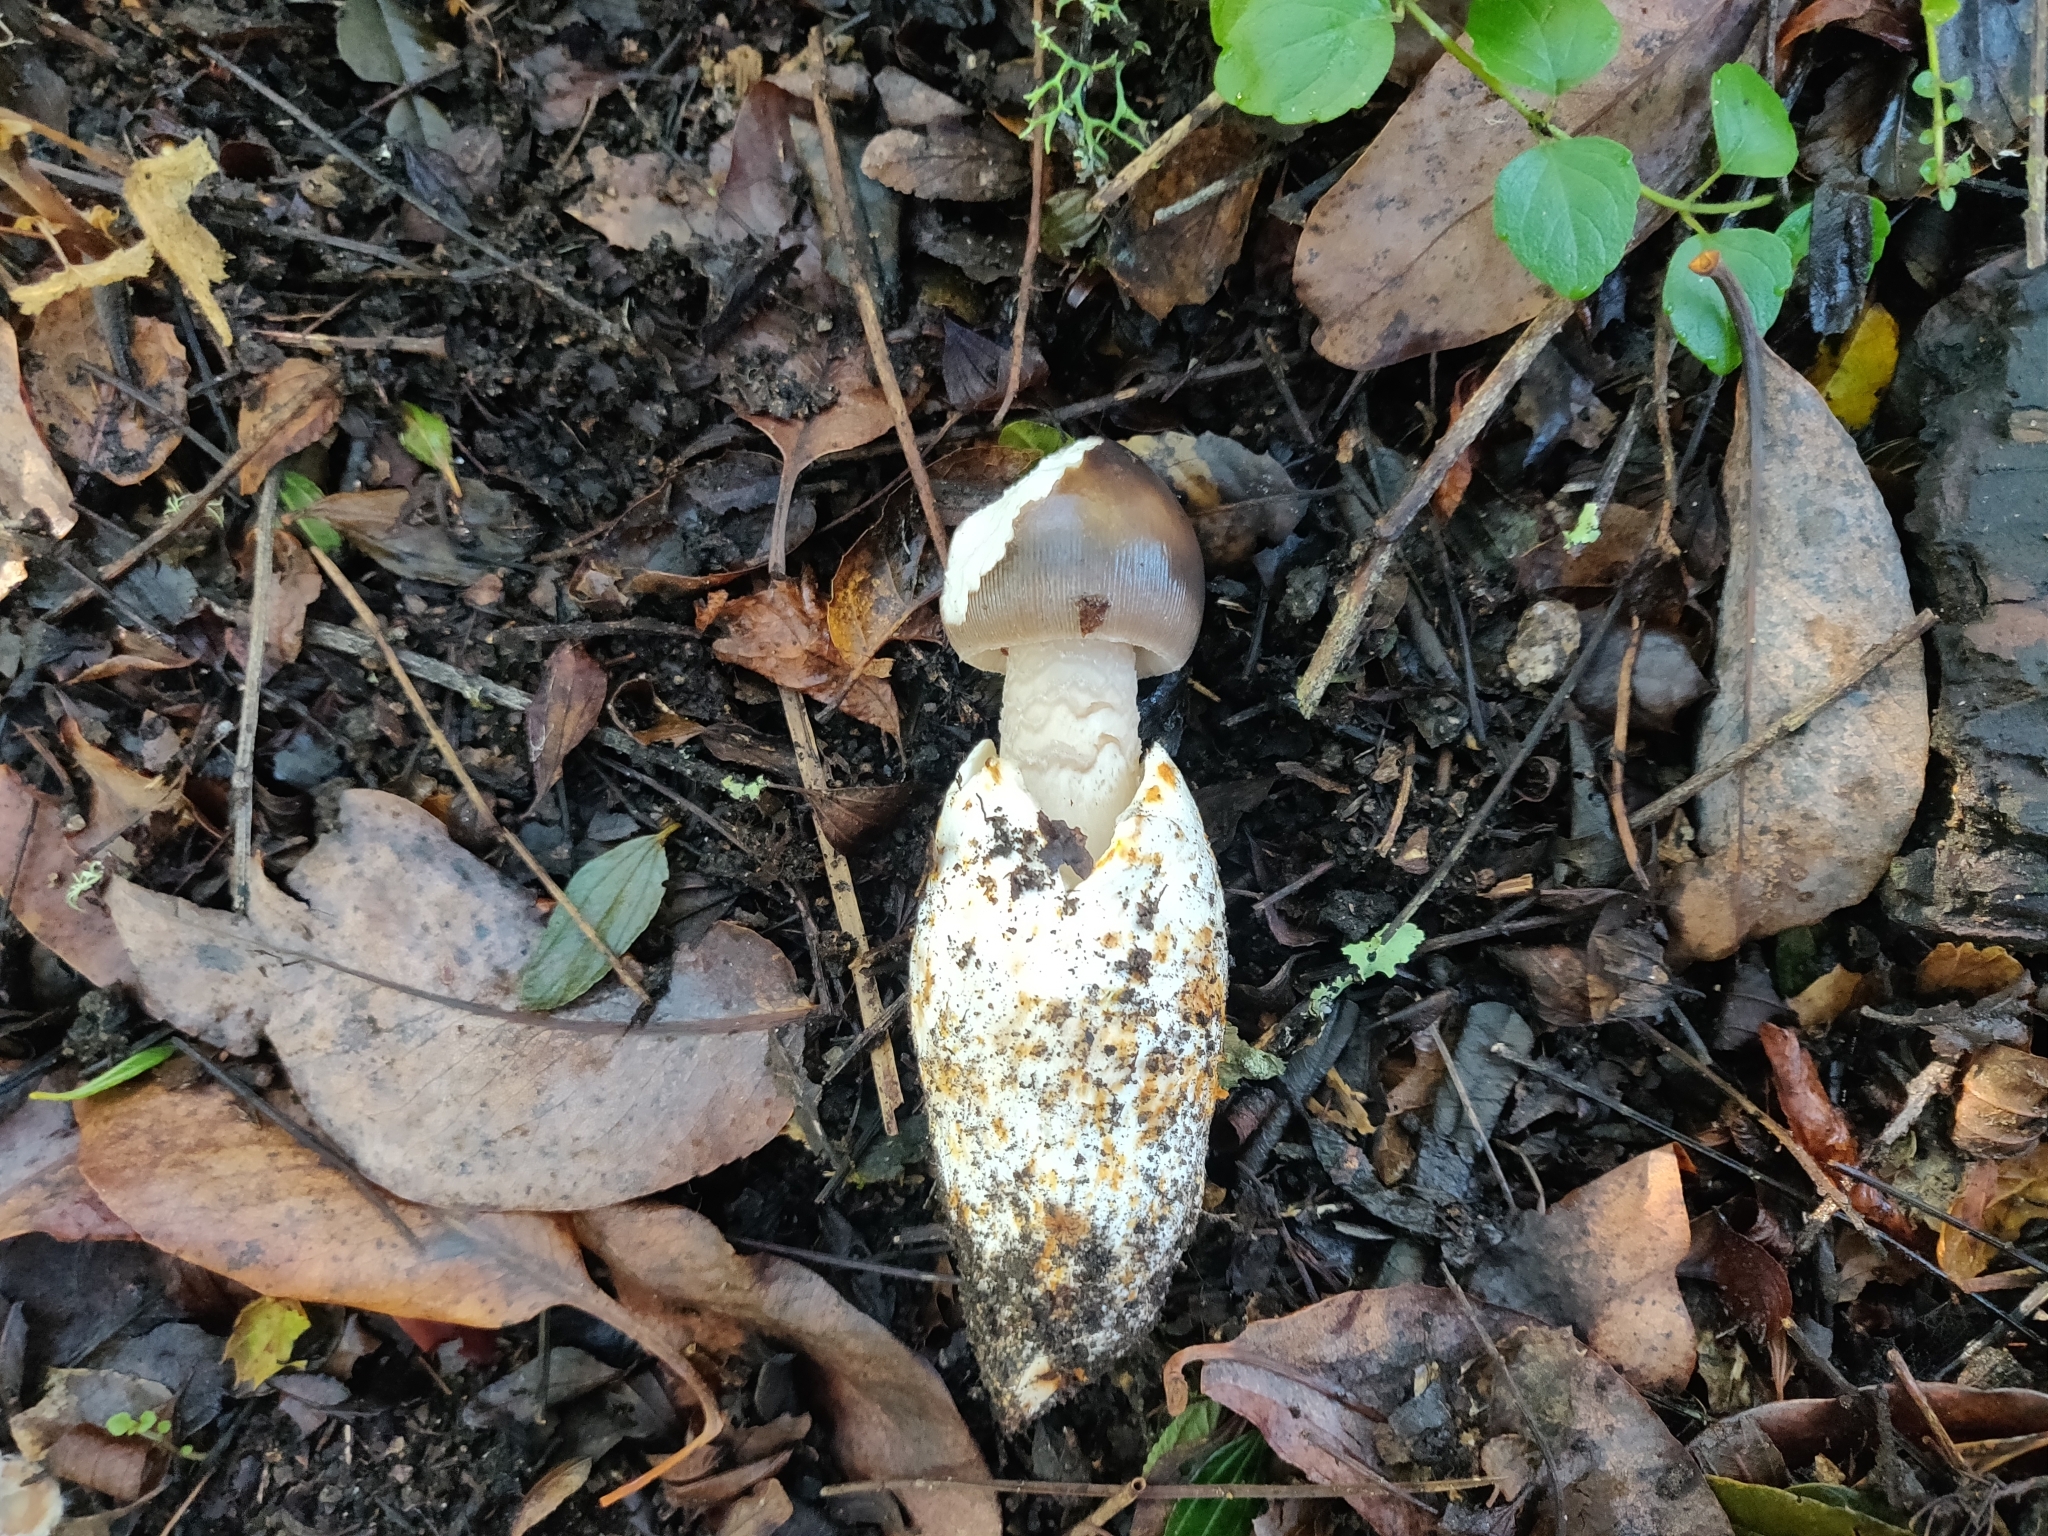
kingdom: Fungi
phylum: Basidiomycota
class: Agaricomycetes
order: Agaricales
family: Amanitaceae
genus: Amanita
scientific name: Amanita pachycolea
